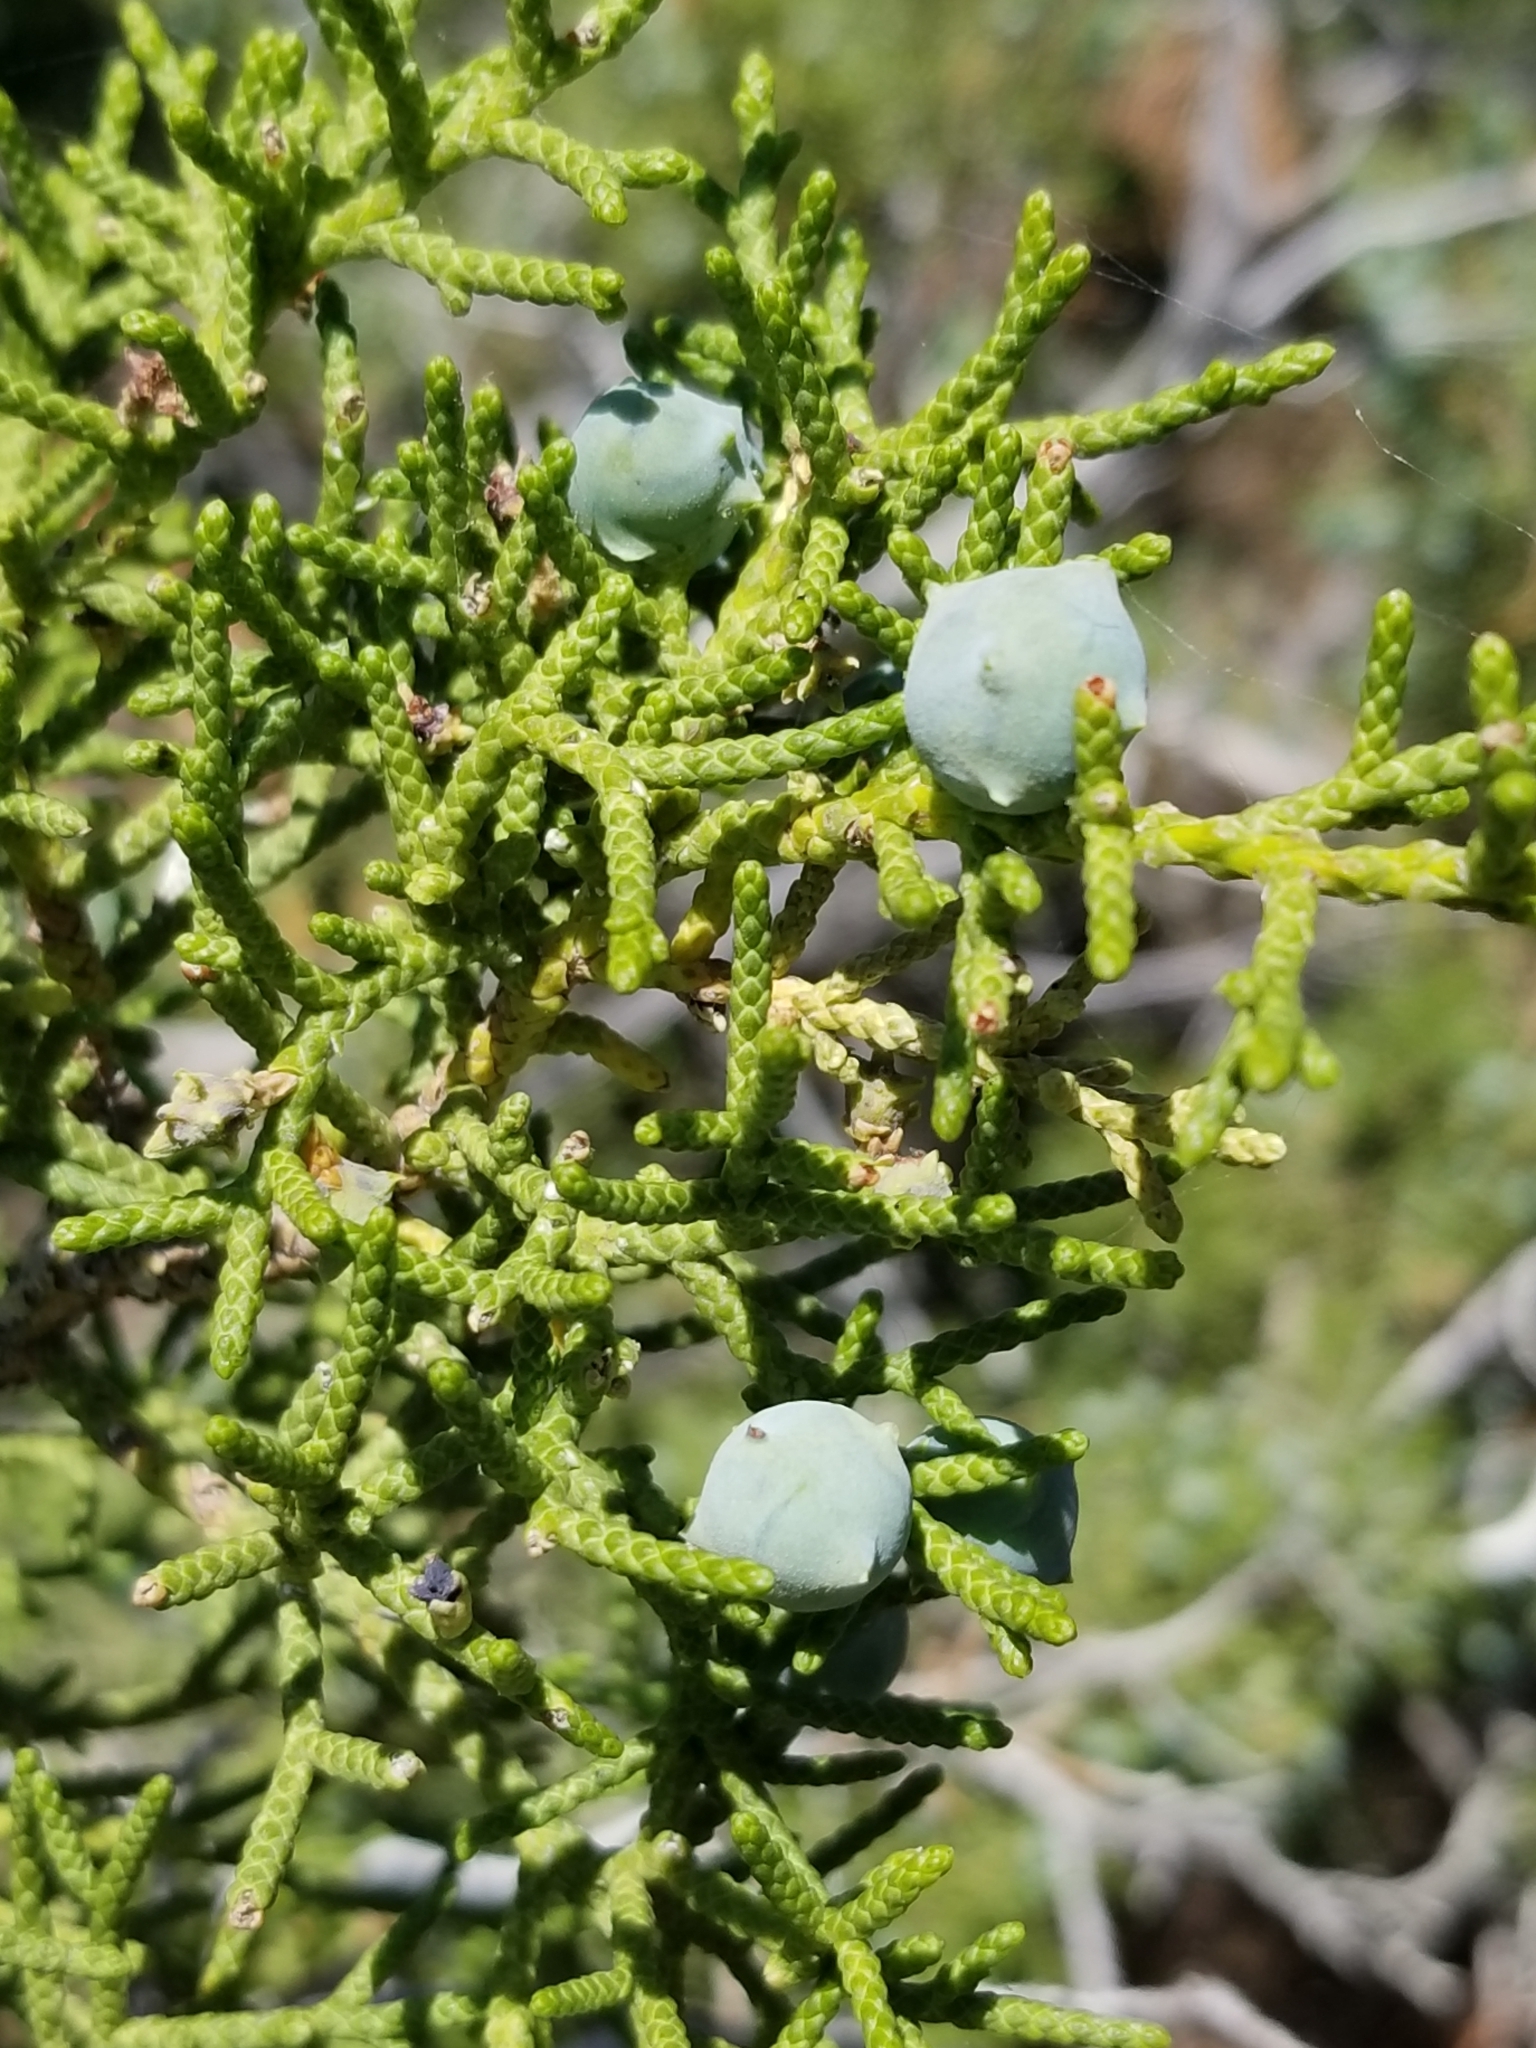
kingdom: Plantae
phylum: Tracheophyta
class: Pinopsida
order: Pinales
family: Cupressaceae
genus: Juniperus
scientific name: Juniperus californica
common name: California juniper
